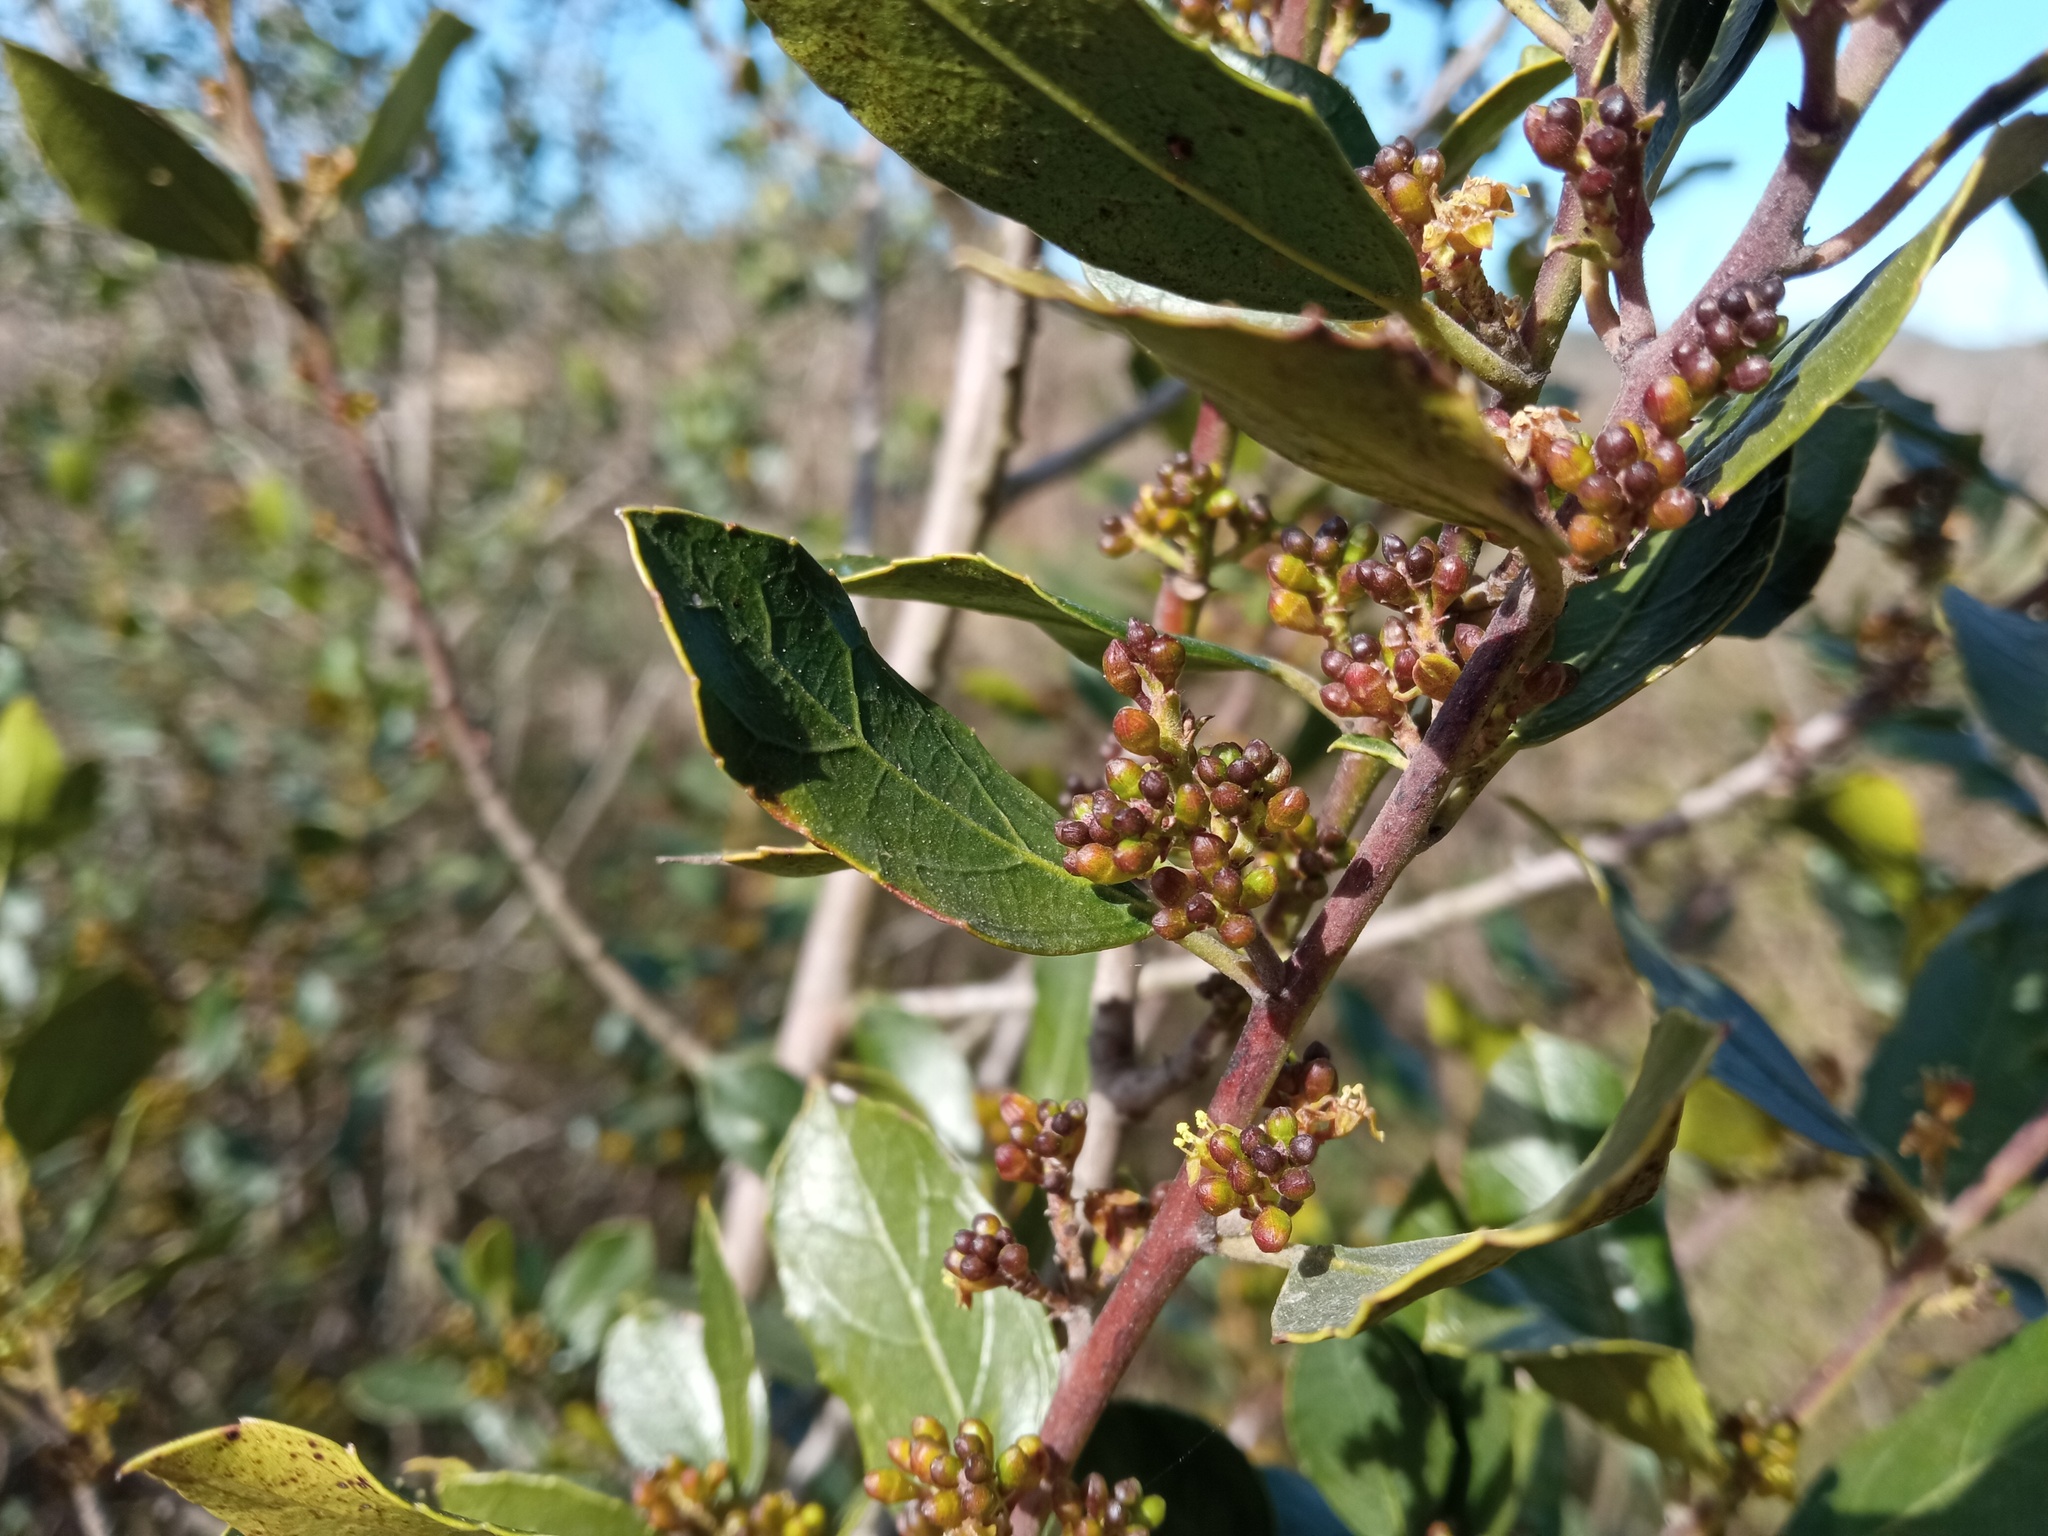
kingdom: Plantae
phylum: Tracheophyta
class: Magnoliopsida
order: Rosales
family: Rhamnaceae
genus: Rhamnus
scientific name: Rhamnus alaternus
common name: Mediterranean buckthorn
